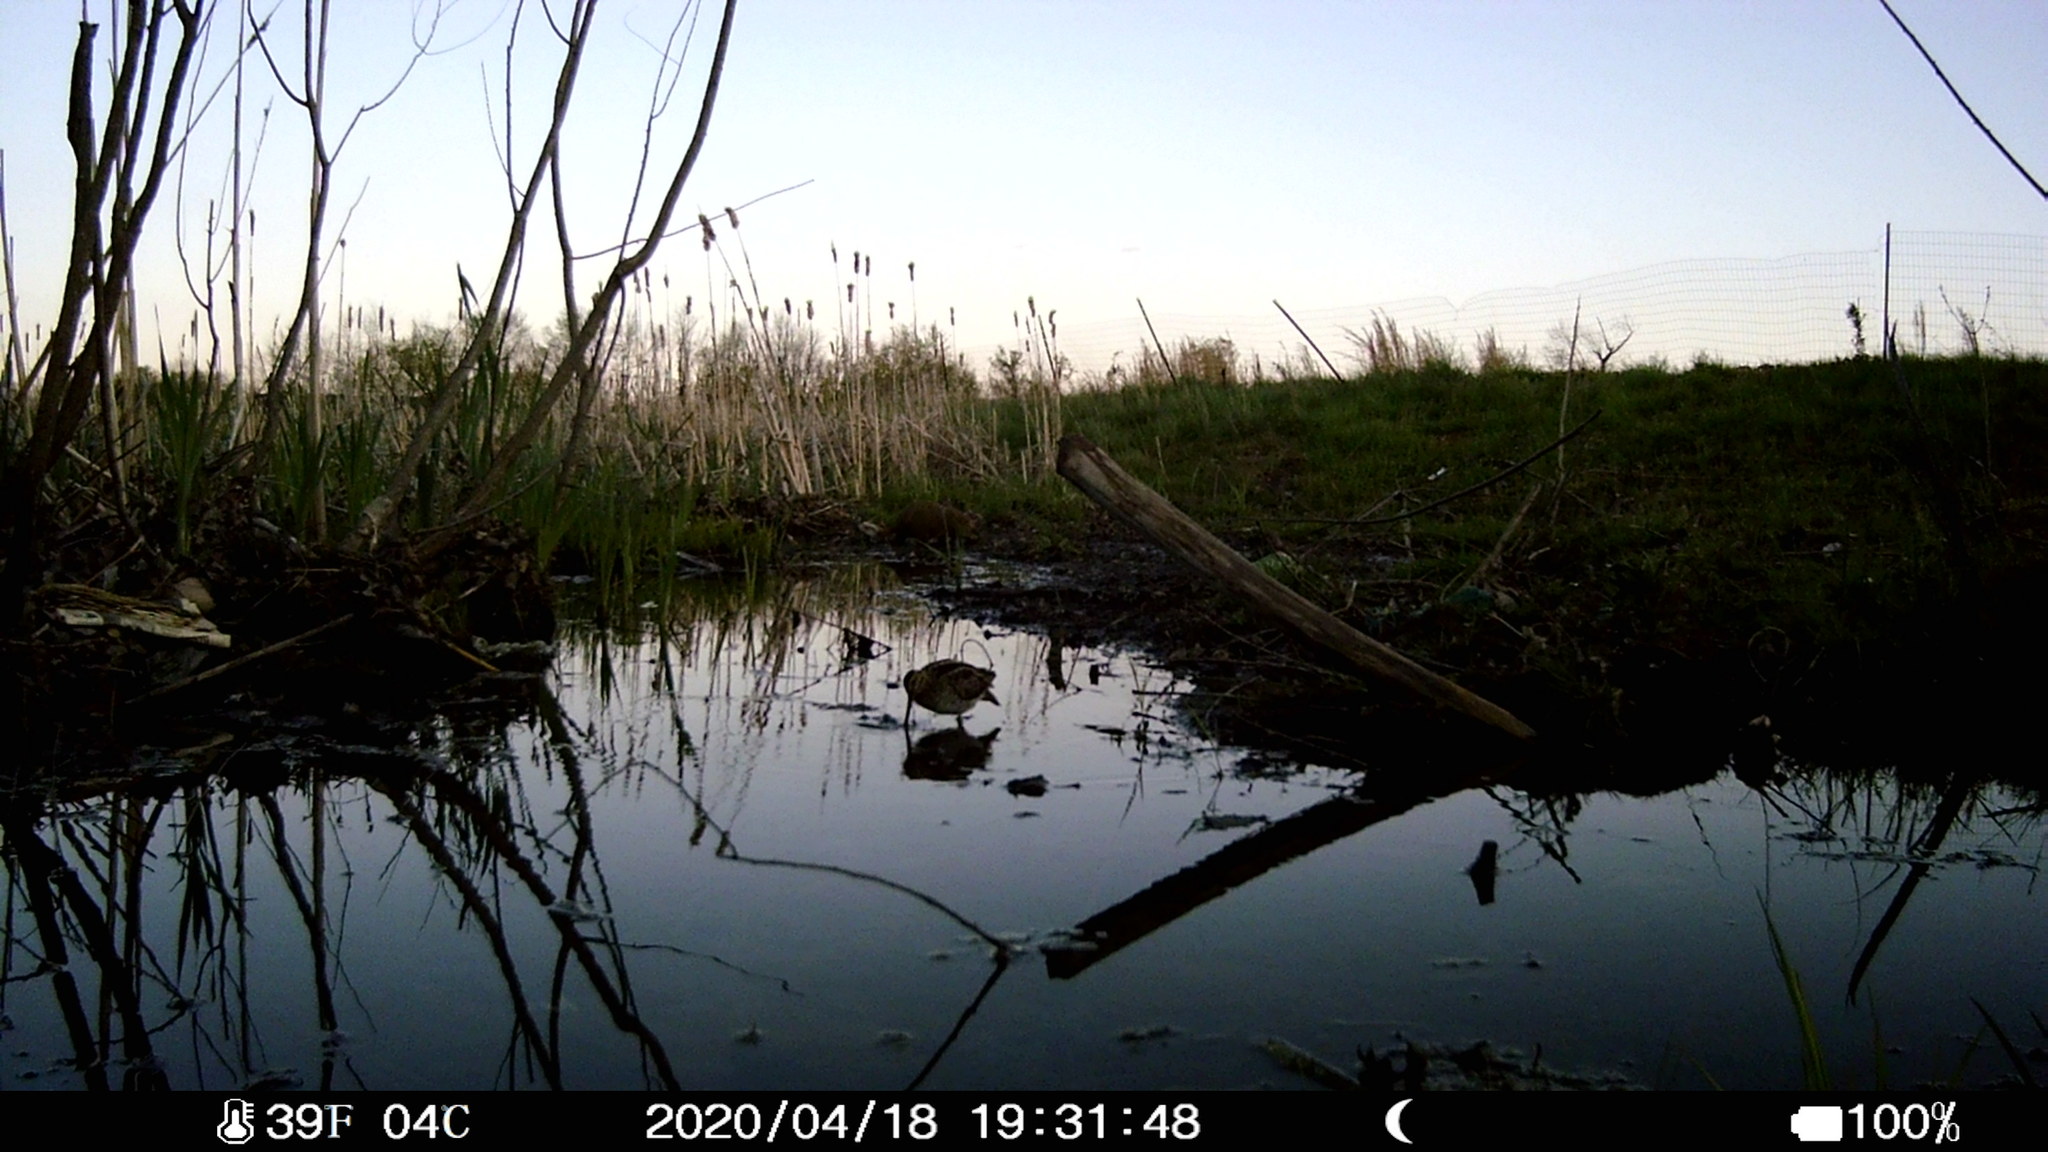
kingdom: Animalia
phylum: Chordata
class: Aves
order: Charadriiformes
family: Scolopacidae
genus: Gallinago
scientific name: Gallinago delicata
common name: Wilson's snipe
